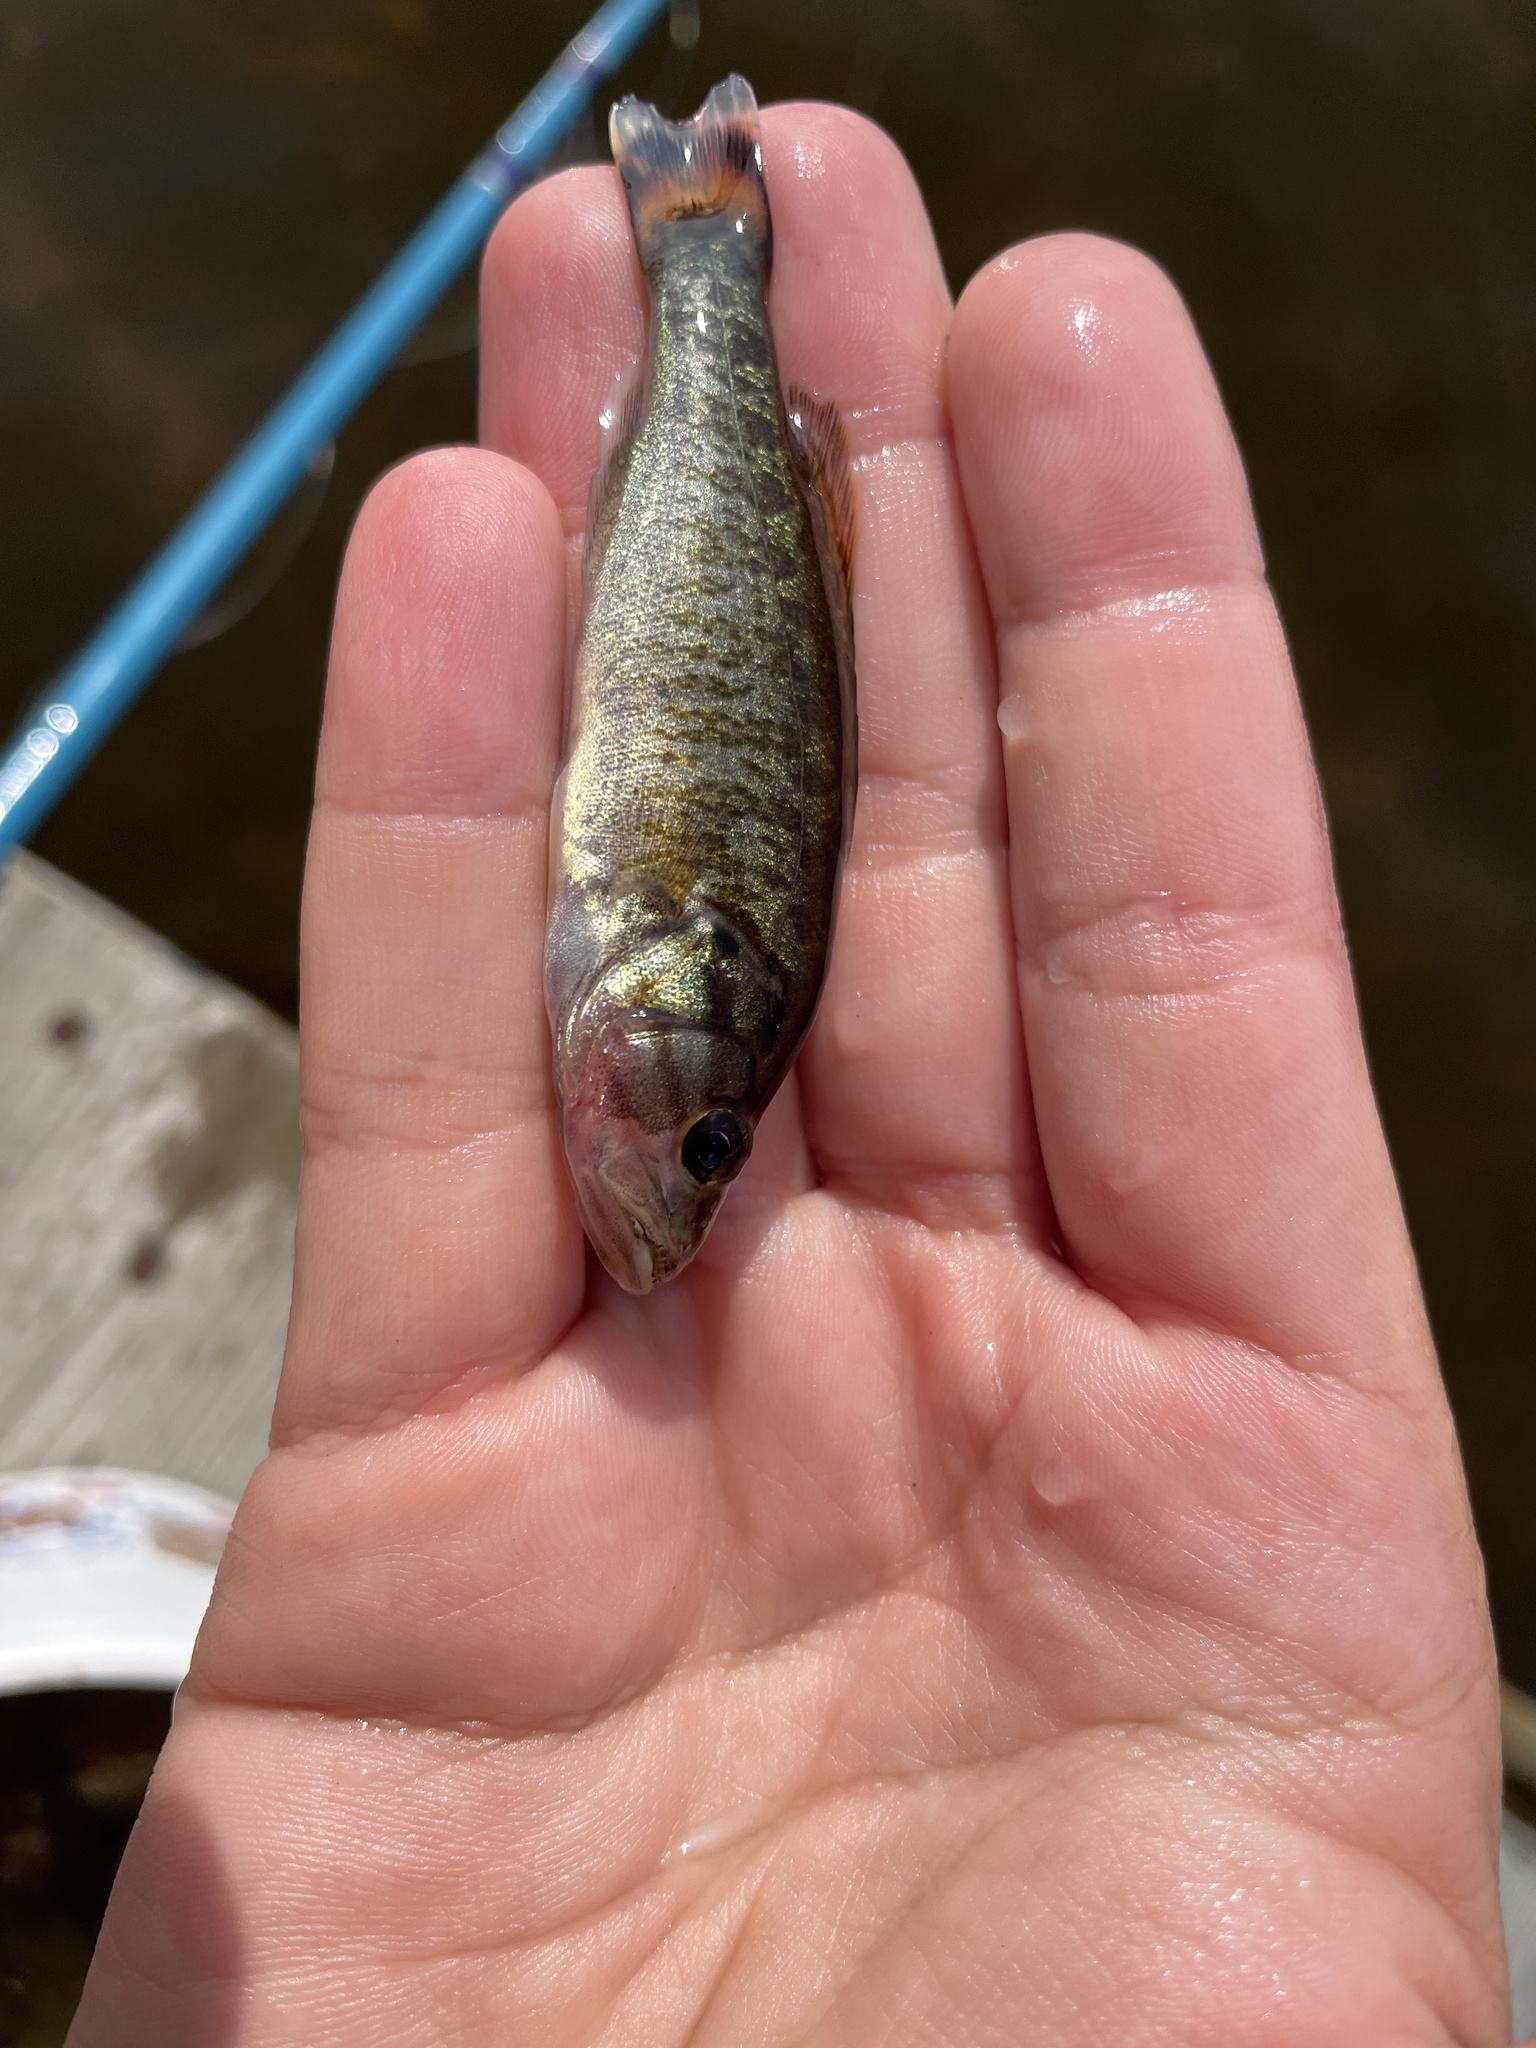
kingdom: Animalia
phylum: Chordata
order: Perciformes
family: Centrarchidae
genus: Micropterus
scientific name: Micropterus dolomieu
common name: Smallmouth bass
